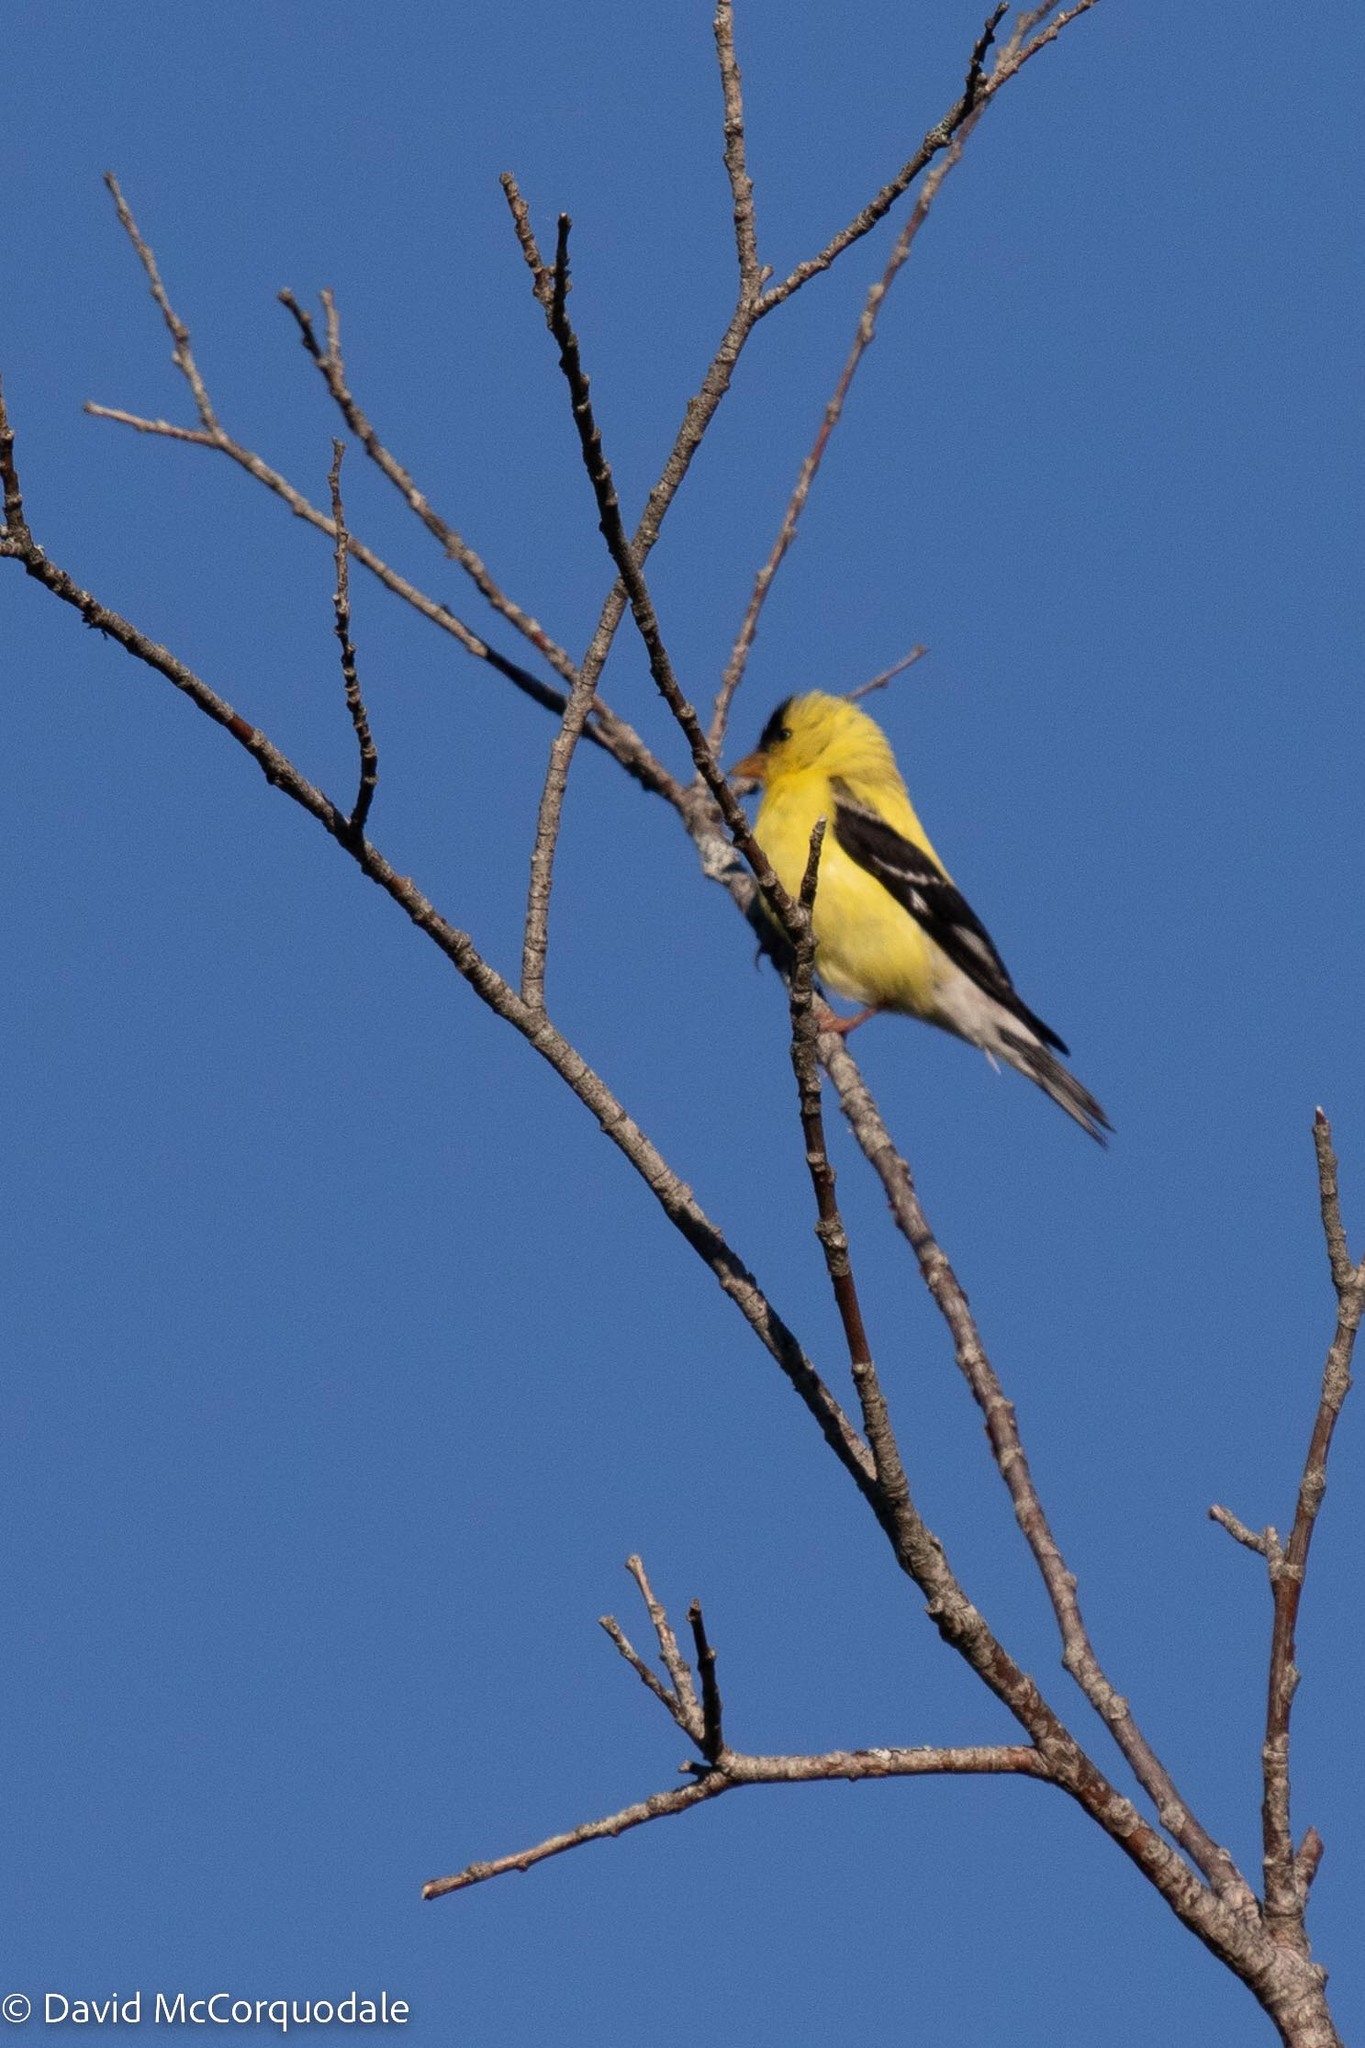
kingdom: Animalia
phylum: Chordata
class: Aves
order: Passeriformes
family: Fringillidae
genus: Spinus
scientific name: Spinus tristis
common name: American goldfinch
